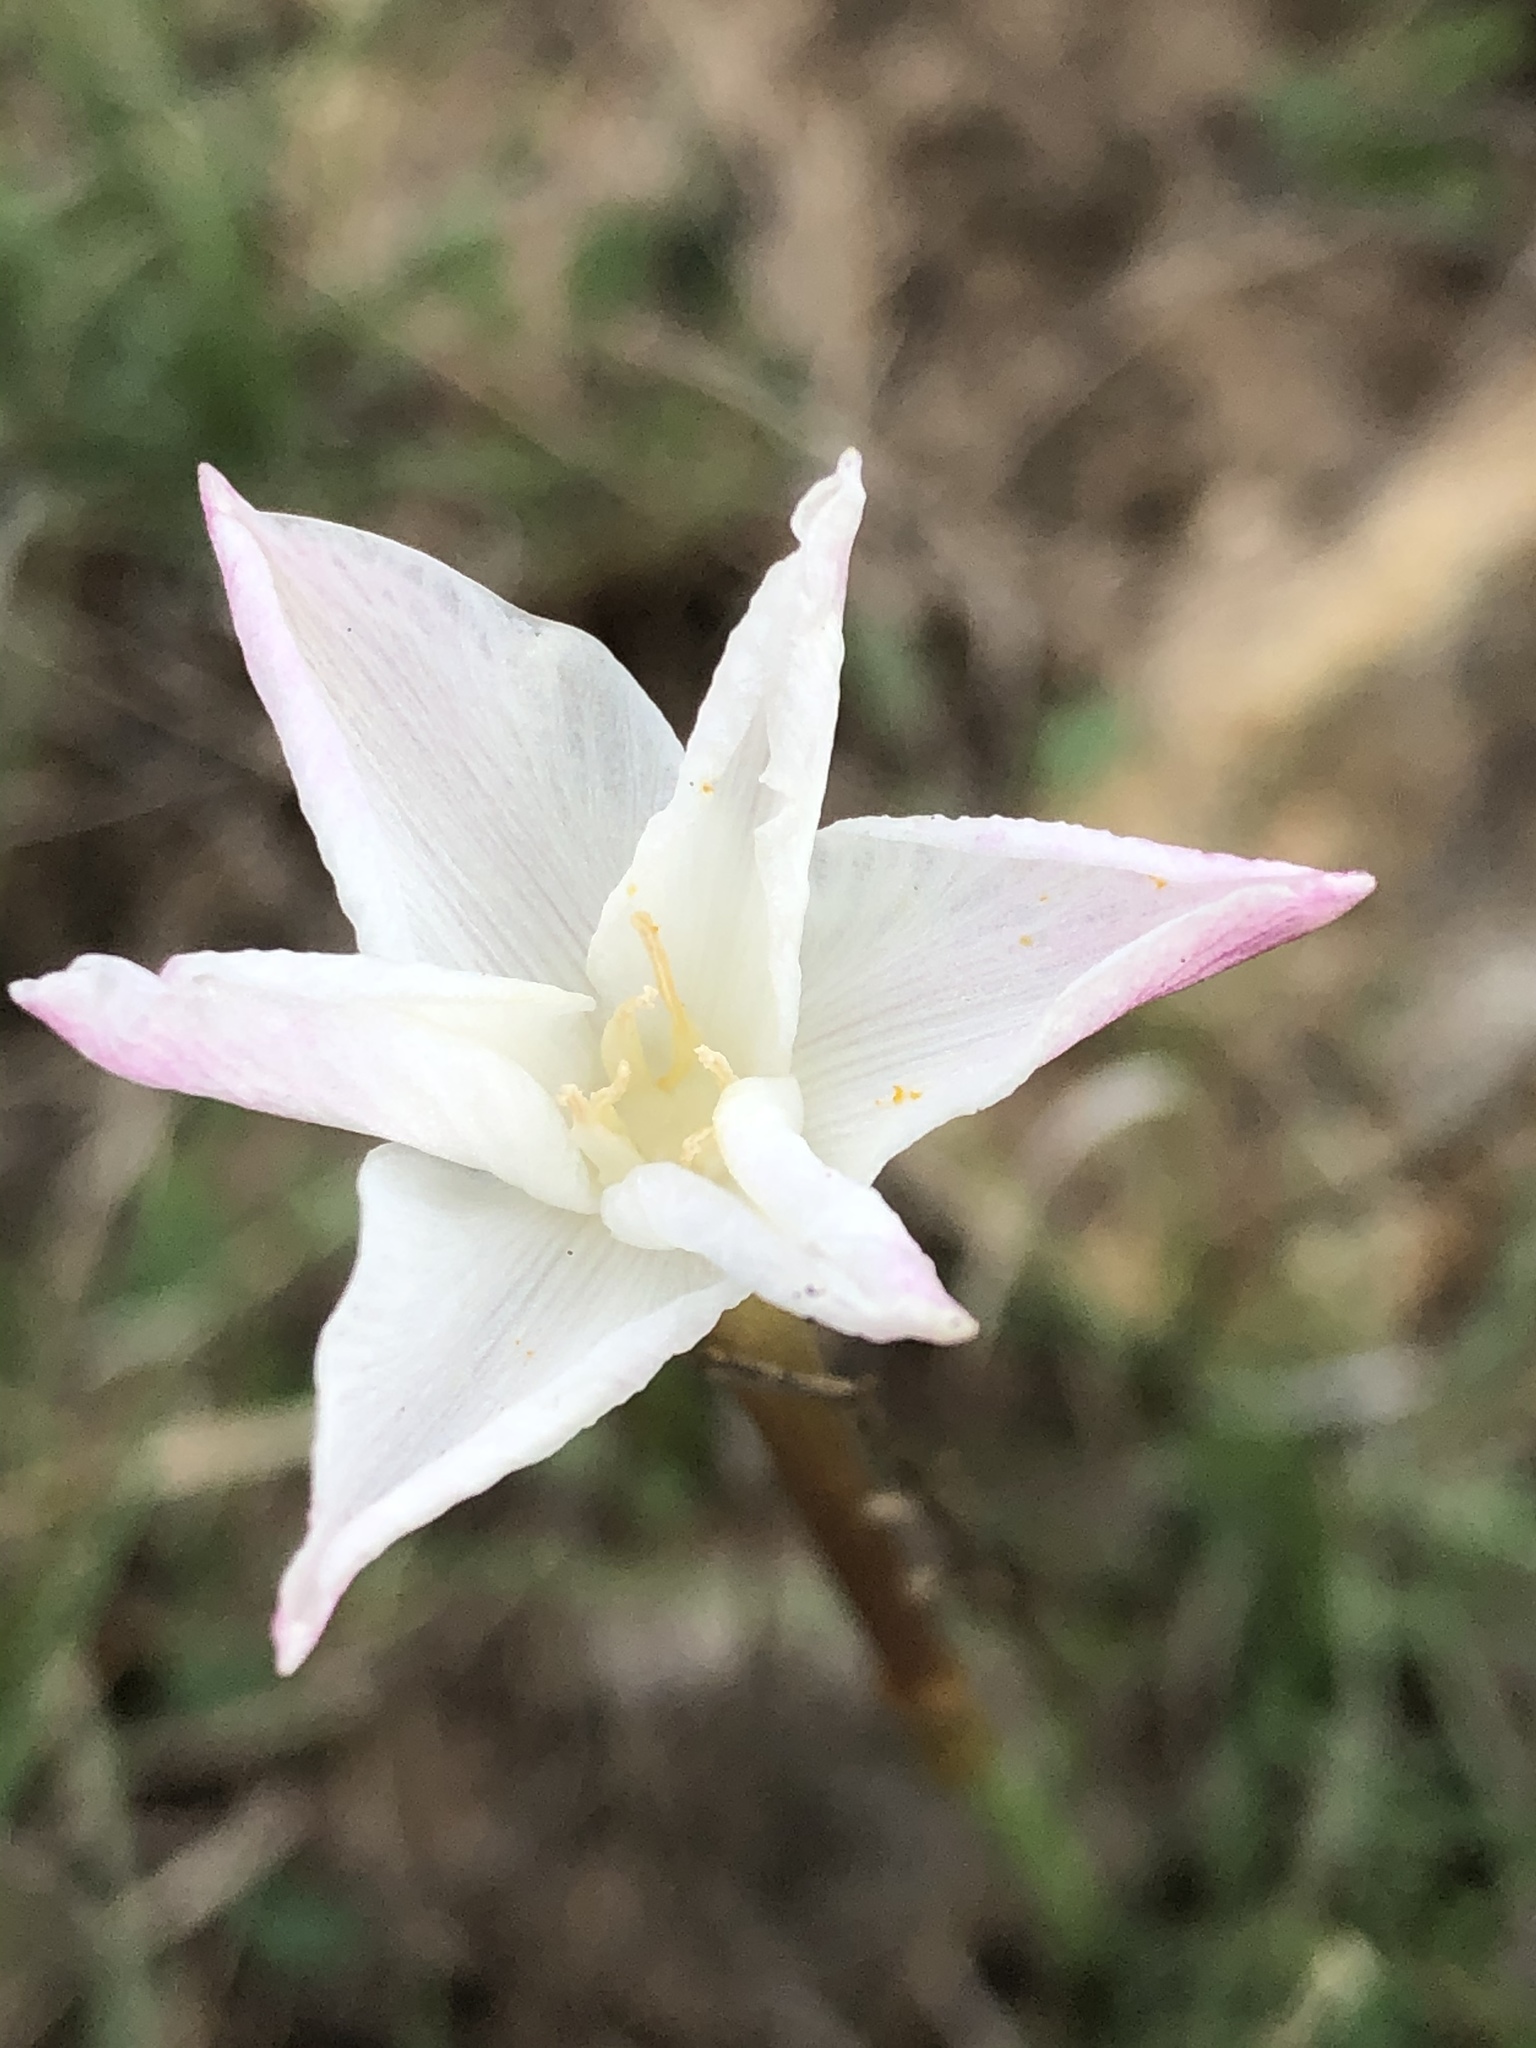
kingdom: Plantae
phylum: Tracheophyta
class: Liliopsida
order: Asparagales
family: Amaryllidaceae
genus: Zephyranthes
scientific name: Zephyranthes chlorosolen
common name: Evening rain-lily
